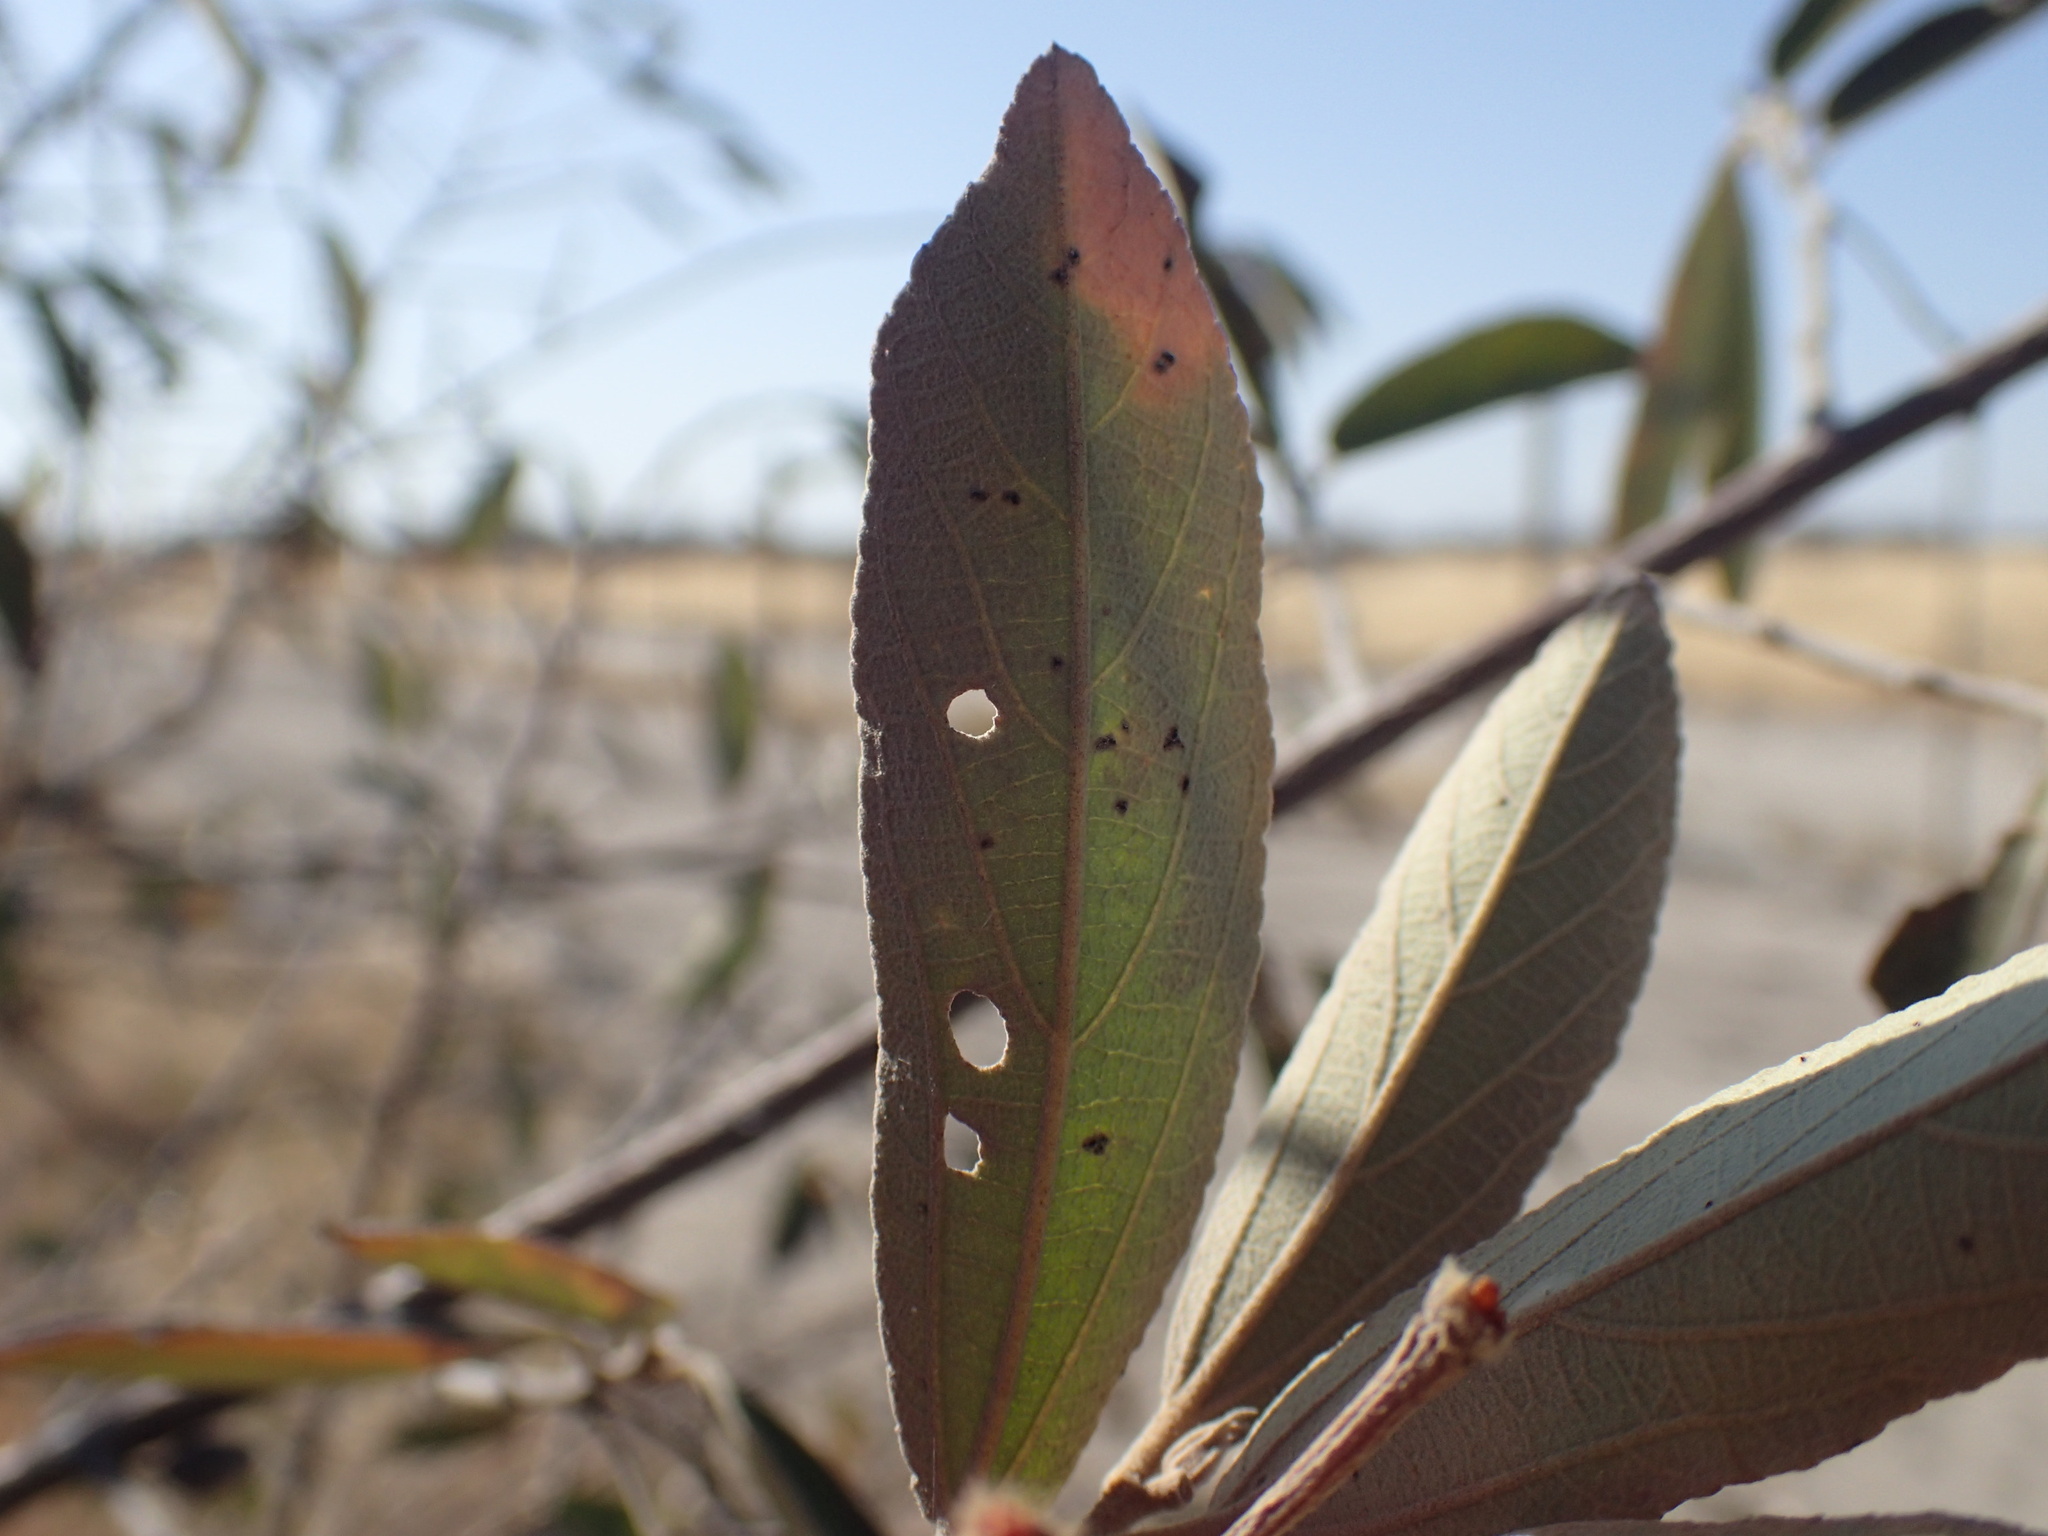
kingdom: Plantae
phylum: Tracheophyta
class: Magnoliopsida
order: Malvales
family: Malvaceae
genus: Grewia
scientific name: Grewia bicolor
